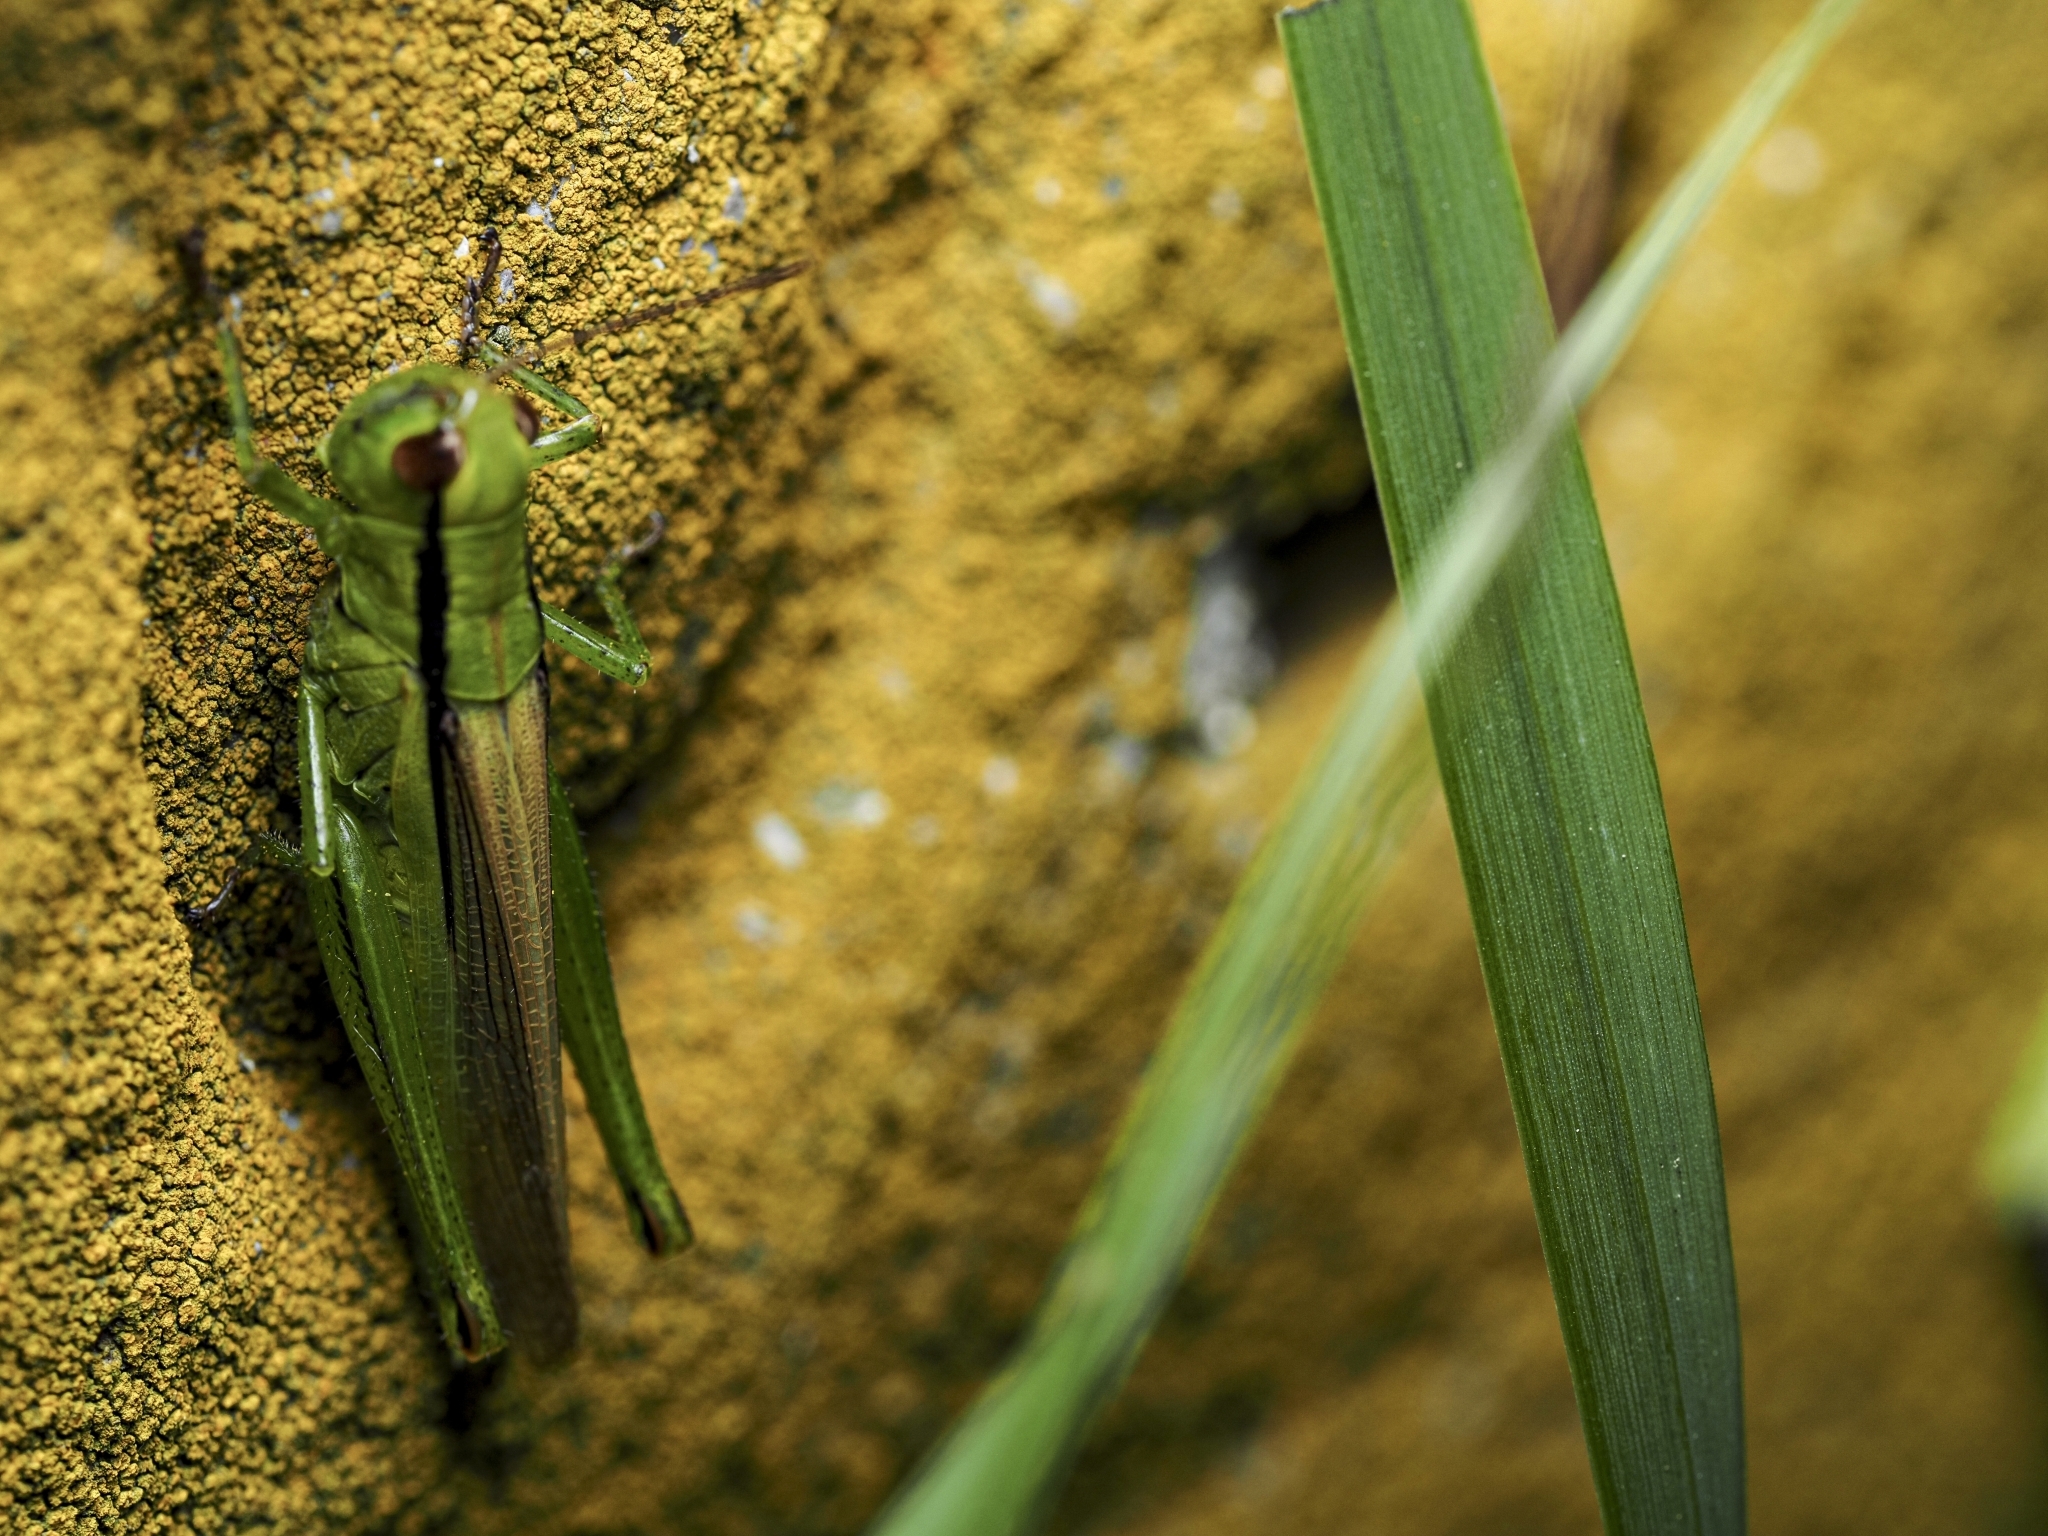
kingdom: Animalia
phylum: Arthropoda
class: Insecta
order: Orthoptera
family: Acrididae
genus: Mecostethus
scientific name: Mecostethus parapleurus
